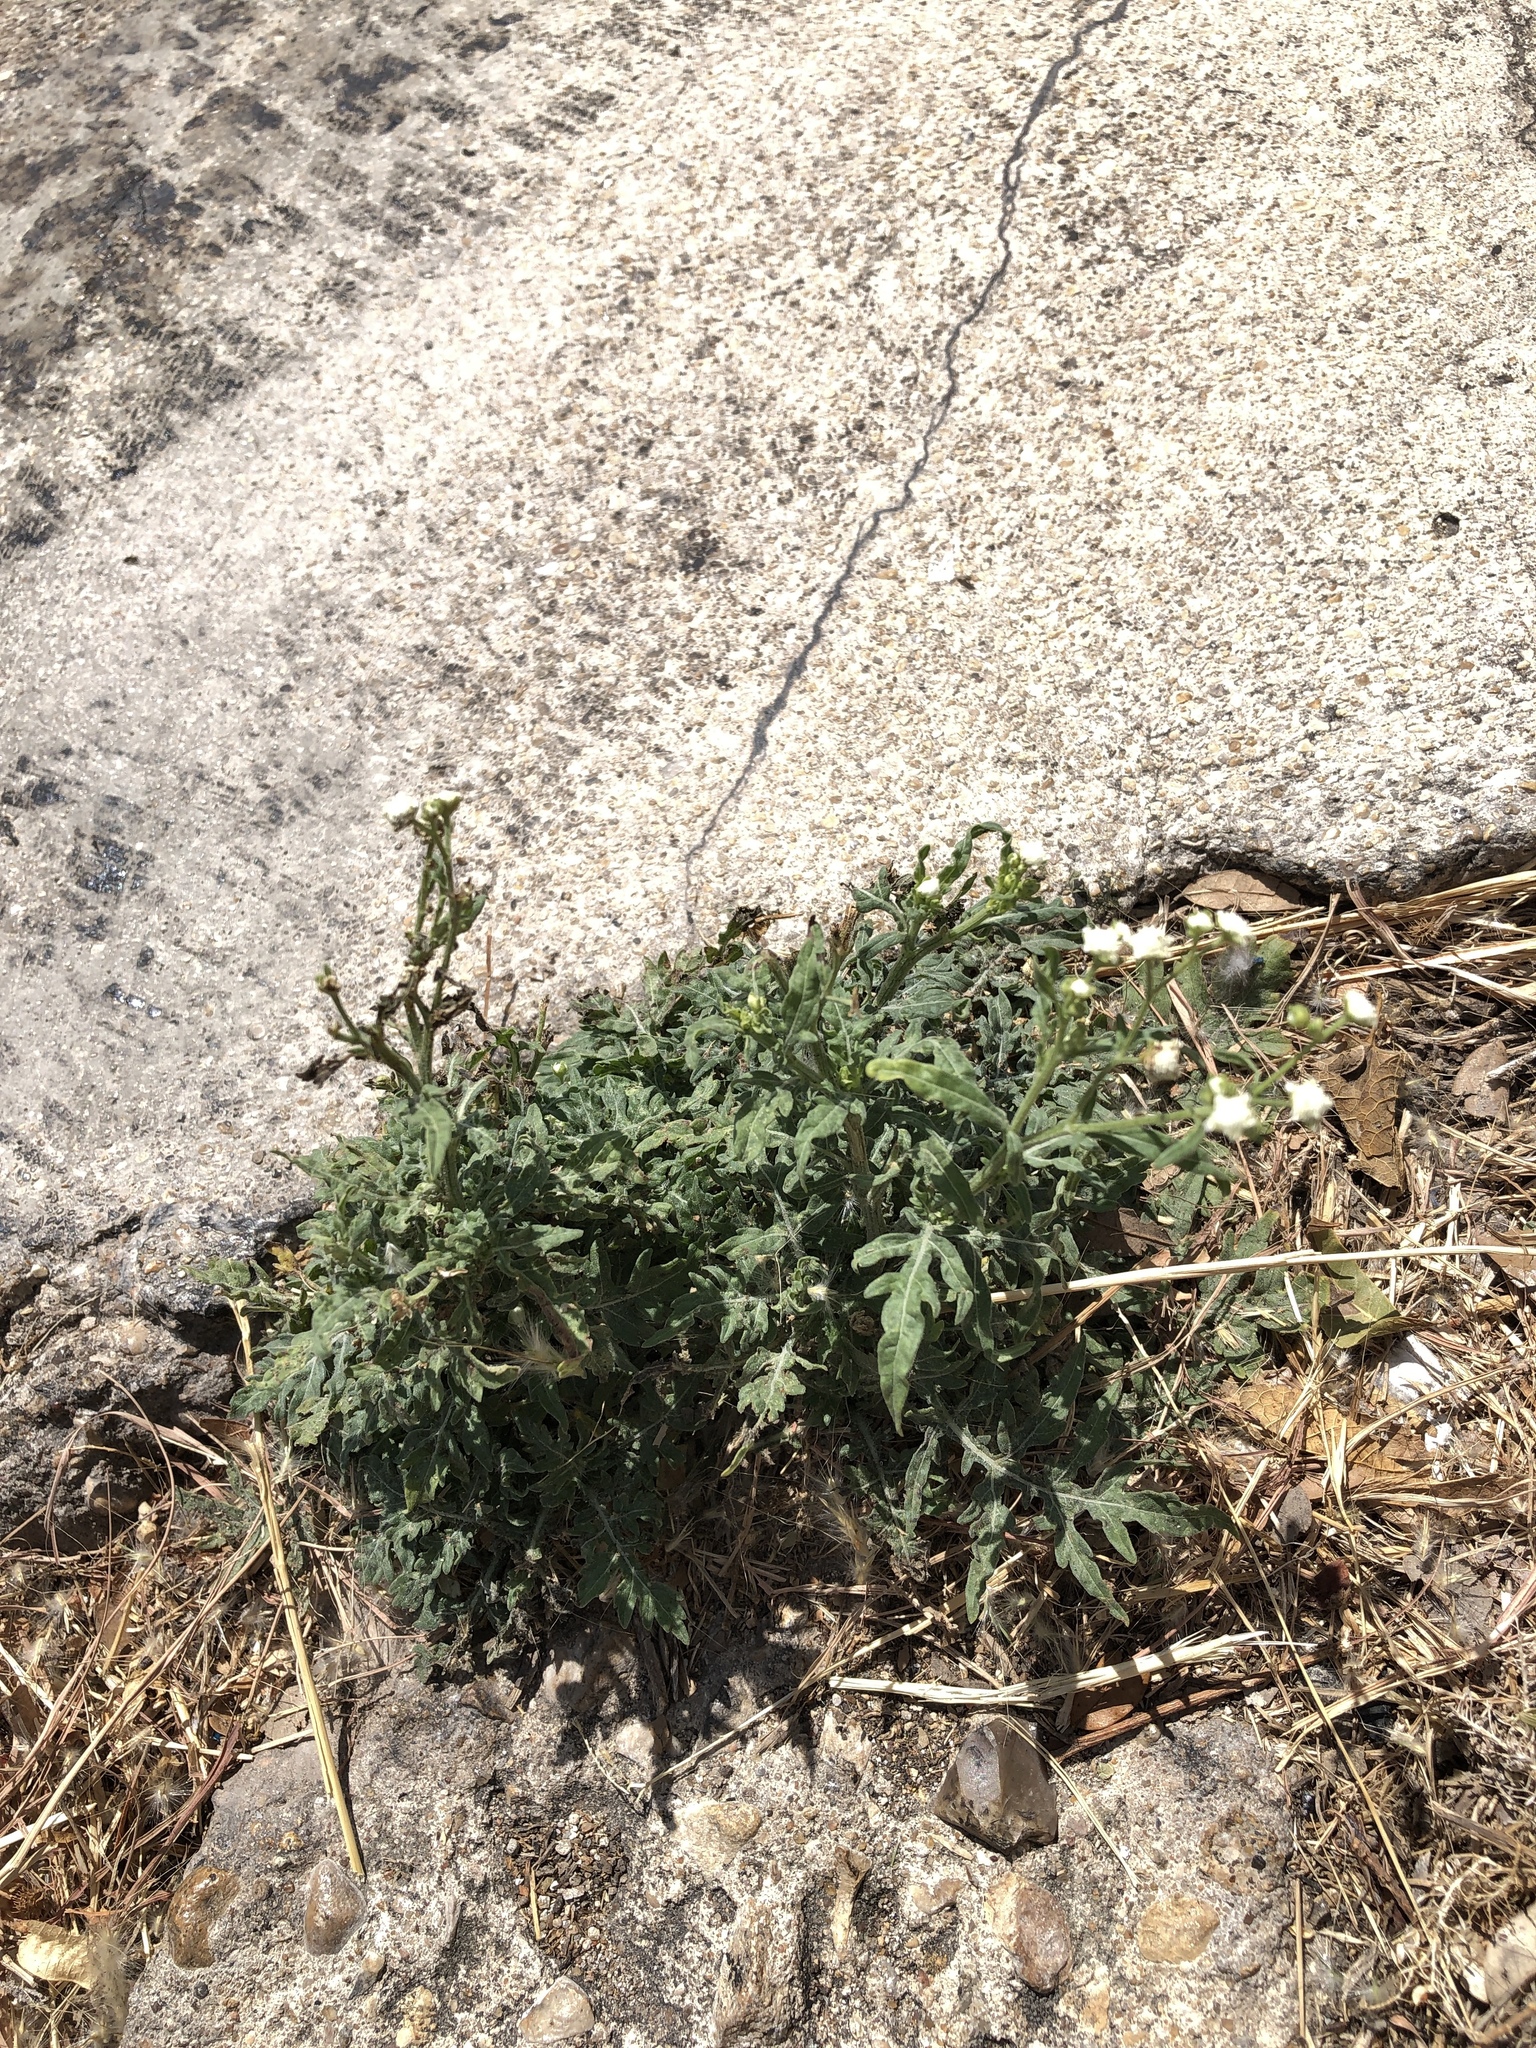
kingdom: Plantae
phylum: Tracheophyta
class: Magnoliopsida
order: Asterales
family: Asteraceae
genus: Parthenium
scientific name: Parthenium hysterophorus
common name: Santa maria feverfew
